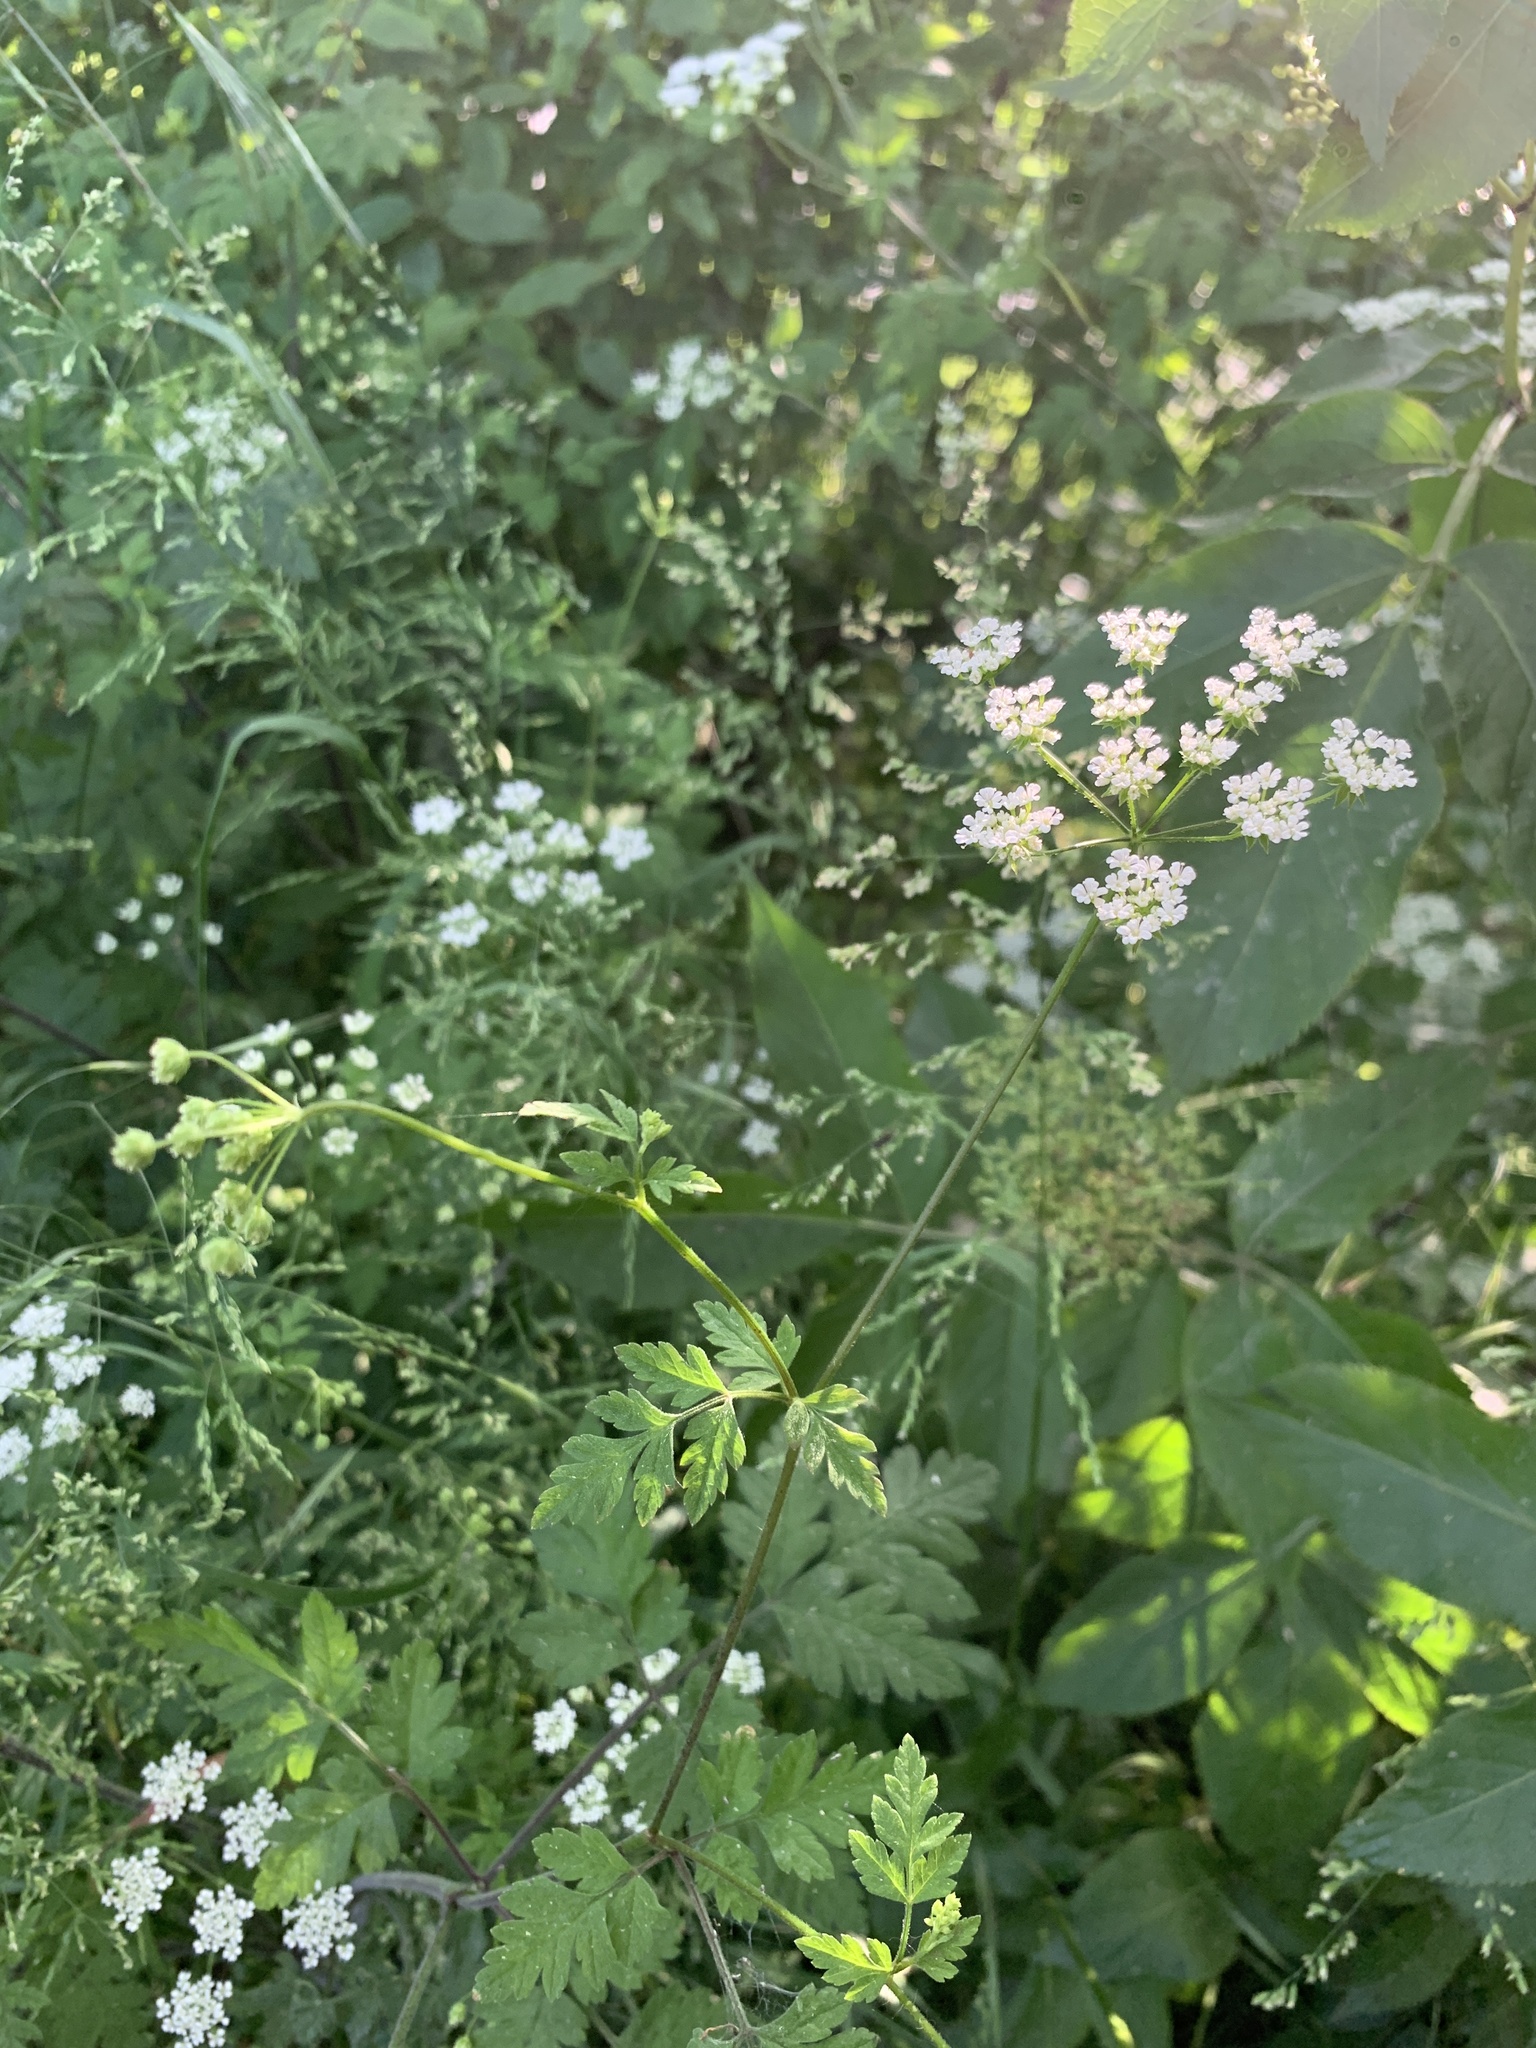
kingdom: Plantae
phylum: Tracheophyta
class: Magnoliopsida
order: Apiales
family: Apiaceae
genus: Chaerophyllum
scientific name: Chaerophyllum temulum
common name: Rough chervil
